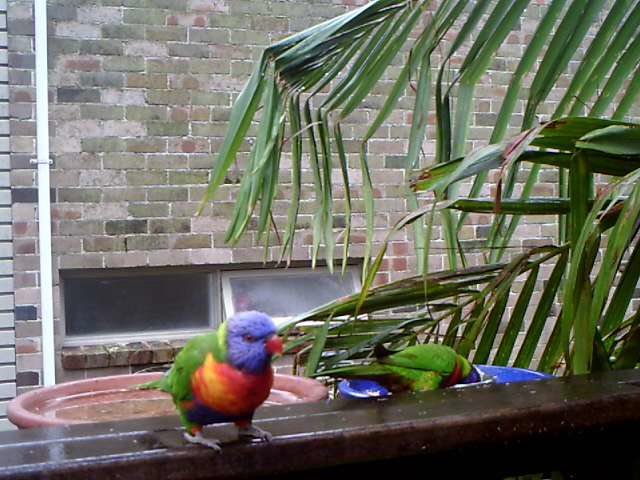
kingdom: Animalia
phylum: Chordata
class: Aves
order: Psittaciformes
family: Psittacidae
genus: Trichoglossus
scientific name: Trichoglossus haematodus
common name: Coconut lorikeet
